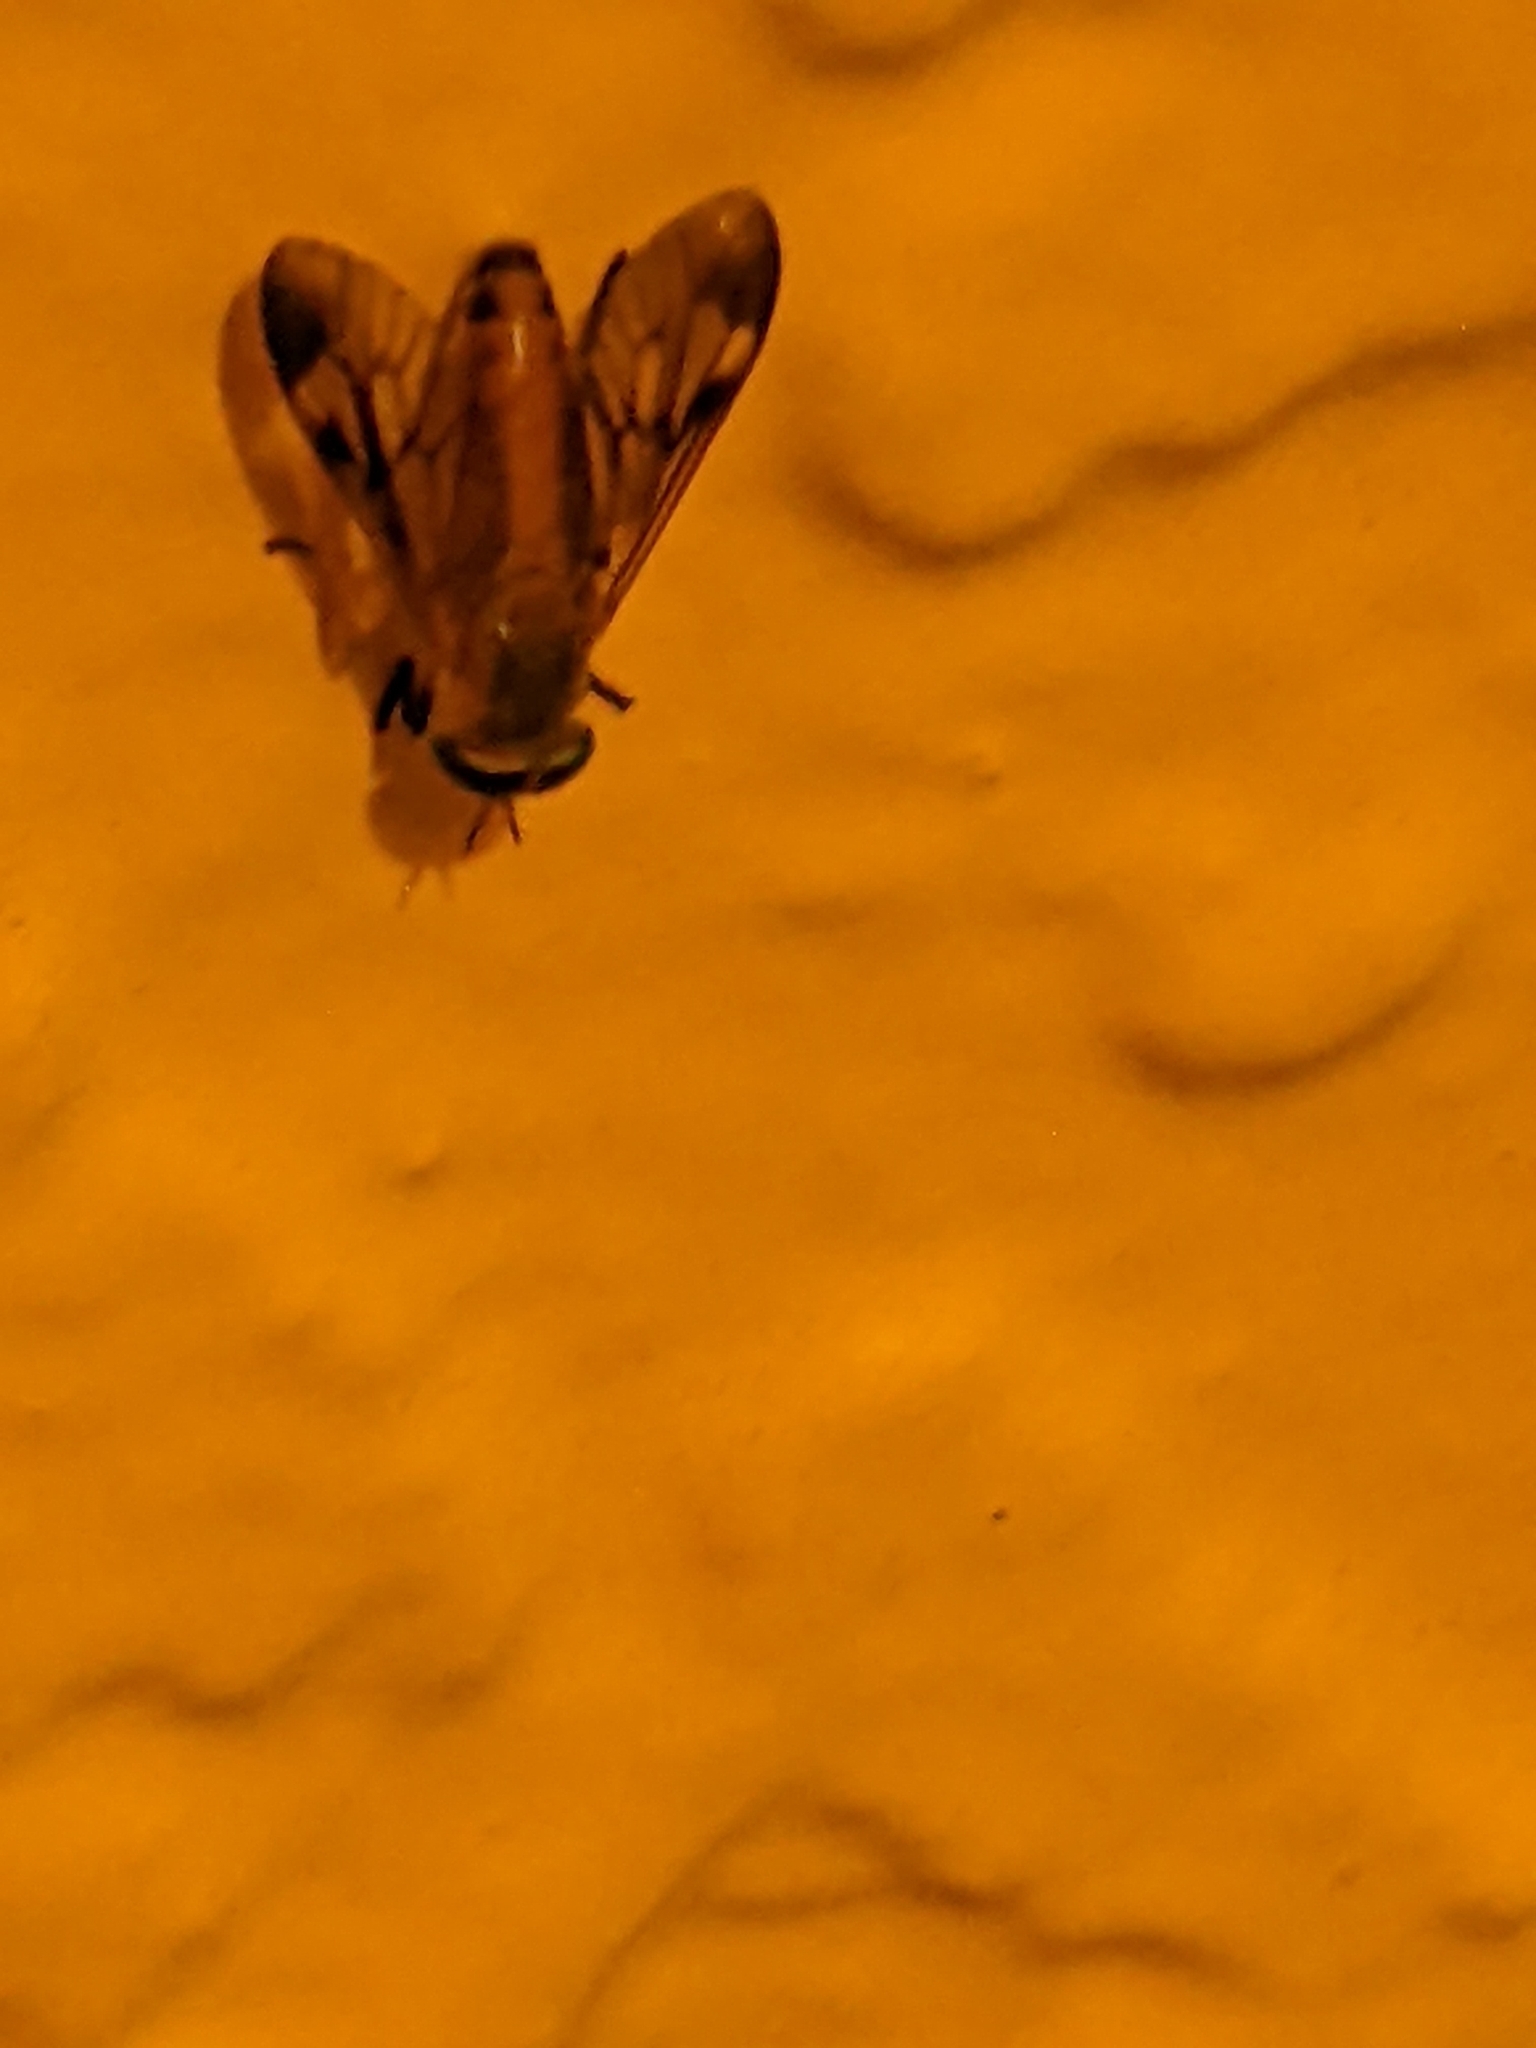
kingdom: Animalia
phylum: Arthropoda
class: Insecta
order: Diptera
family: Tabanidae
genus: Diachlorus
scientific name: Diachlorus ferrugatus
